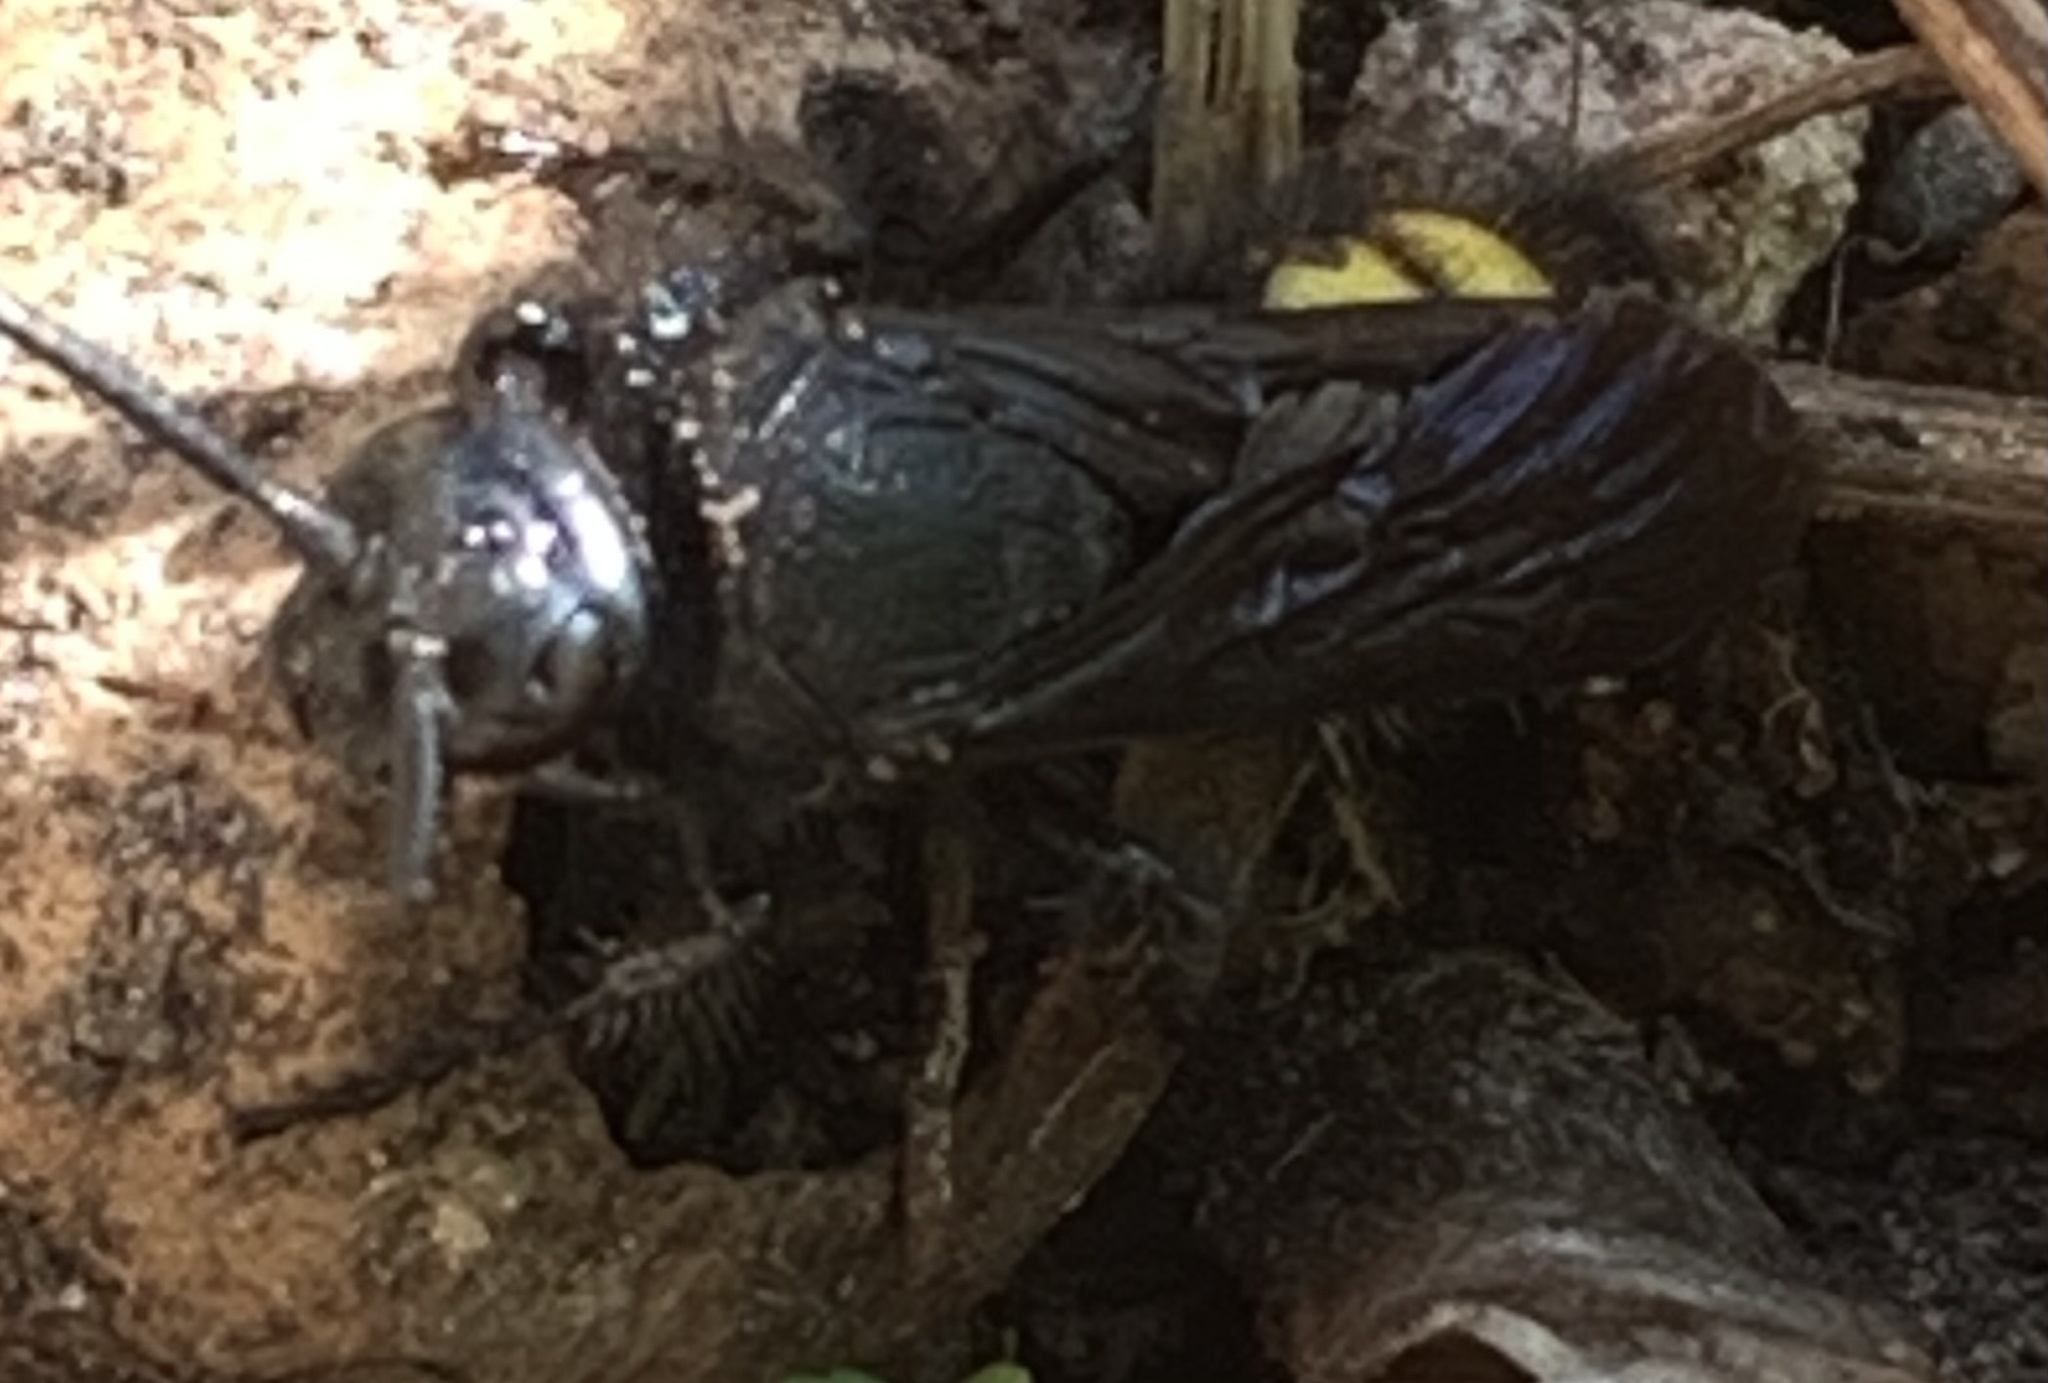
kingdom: Animalia
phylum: Arthropoda
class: Insecta
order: Hymenoptera
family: Scoliidae
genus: Scolia
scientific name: Scolia hirta
